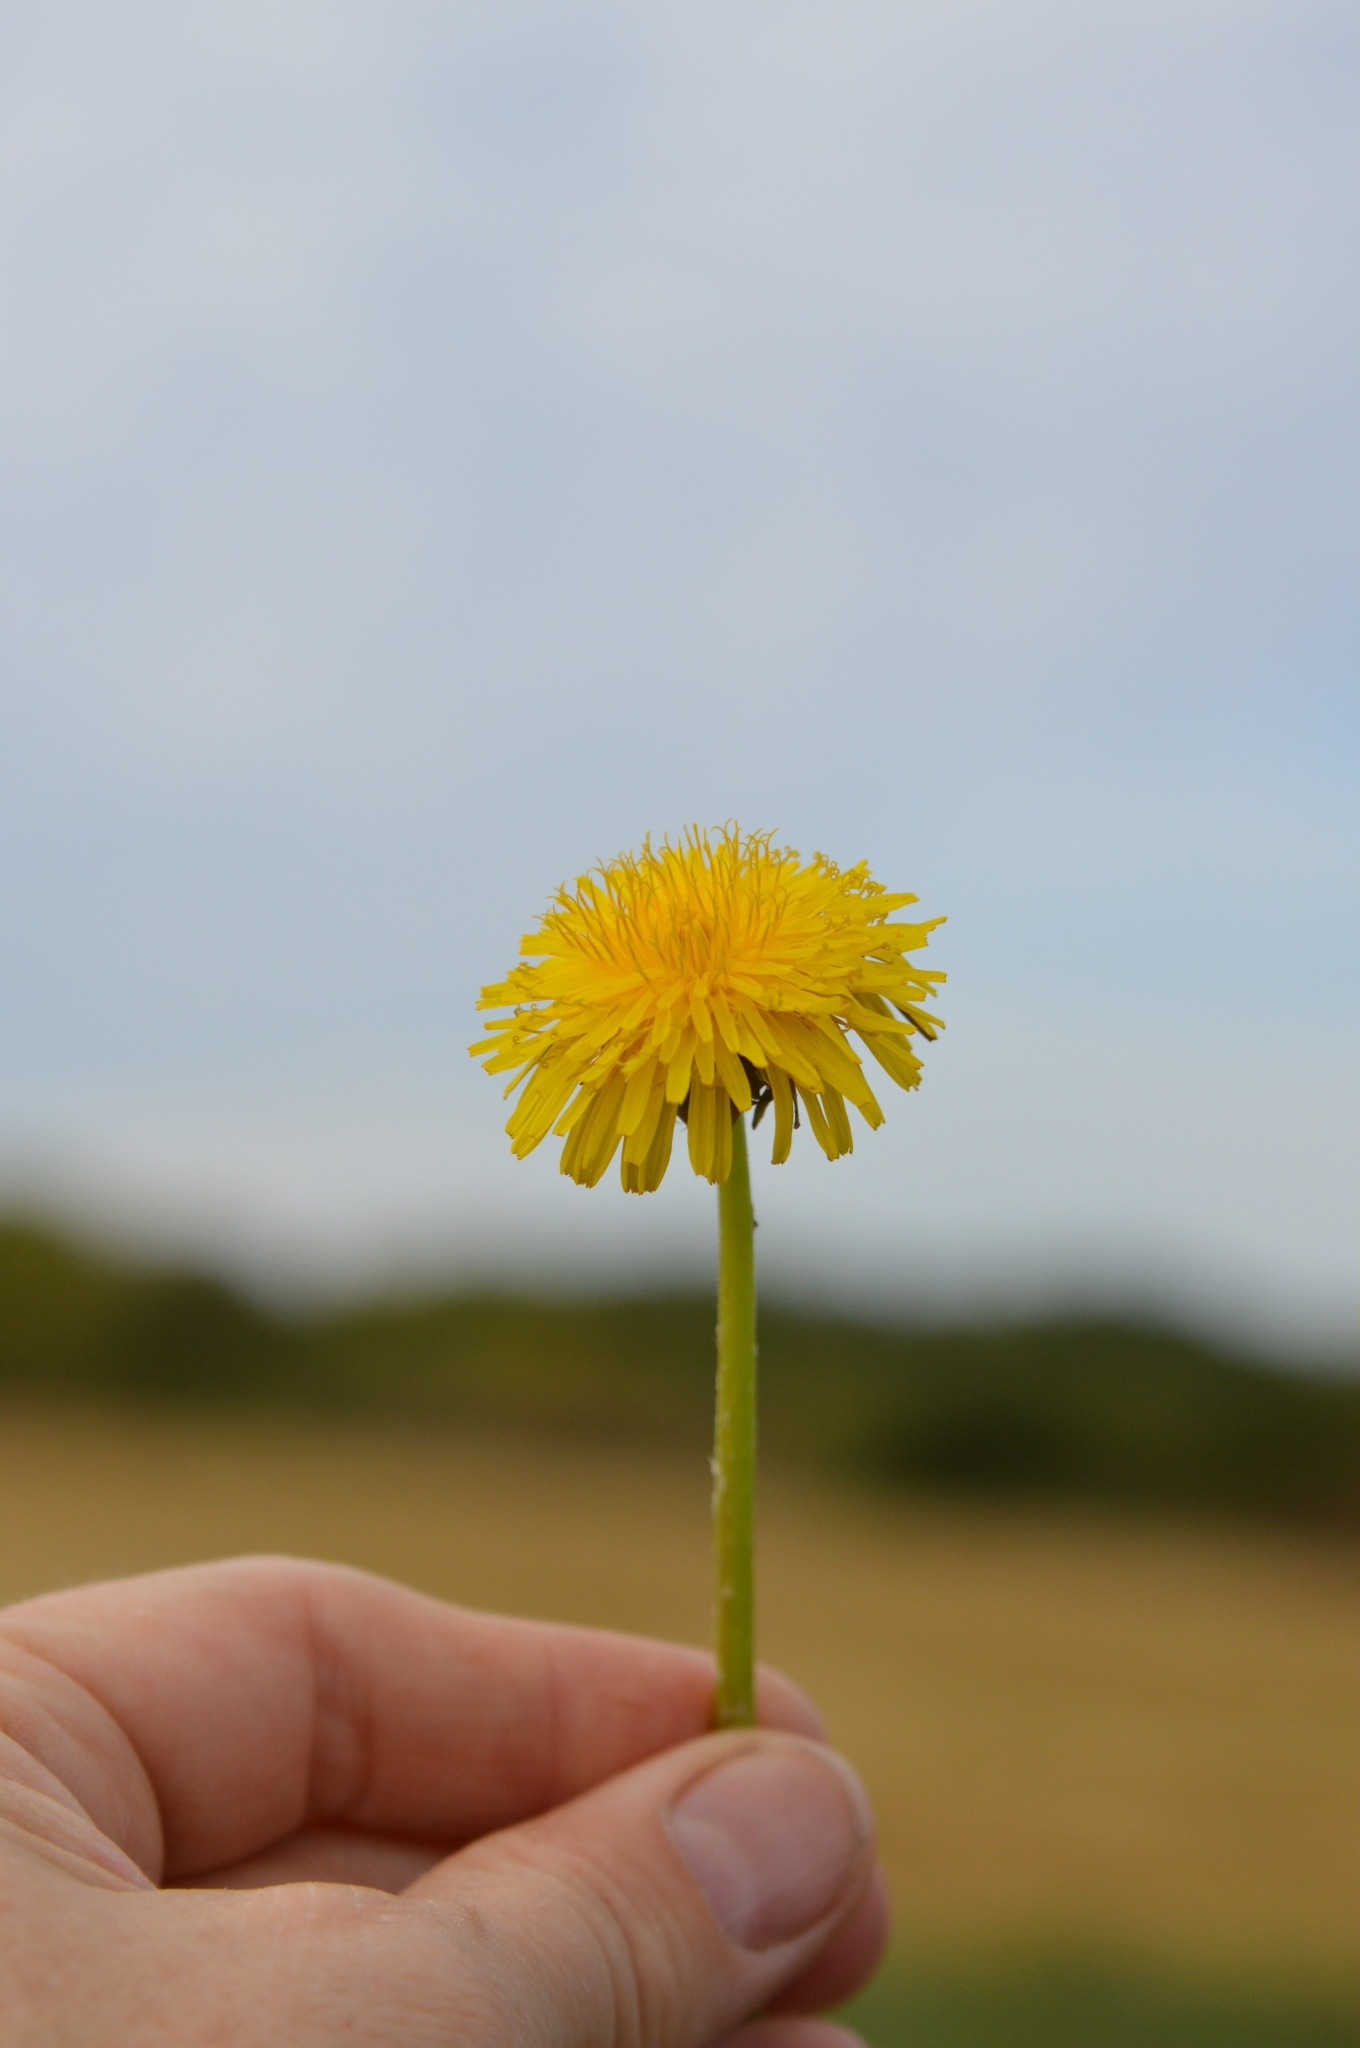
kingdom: Plantae
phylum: Tracheophyta
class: Magnoliopsida
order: Asterales
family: Asteraceae
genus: Taraxacum
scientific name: Taraxacum officinale
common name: Common dandelion
